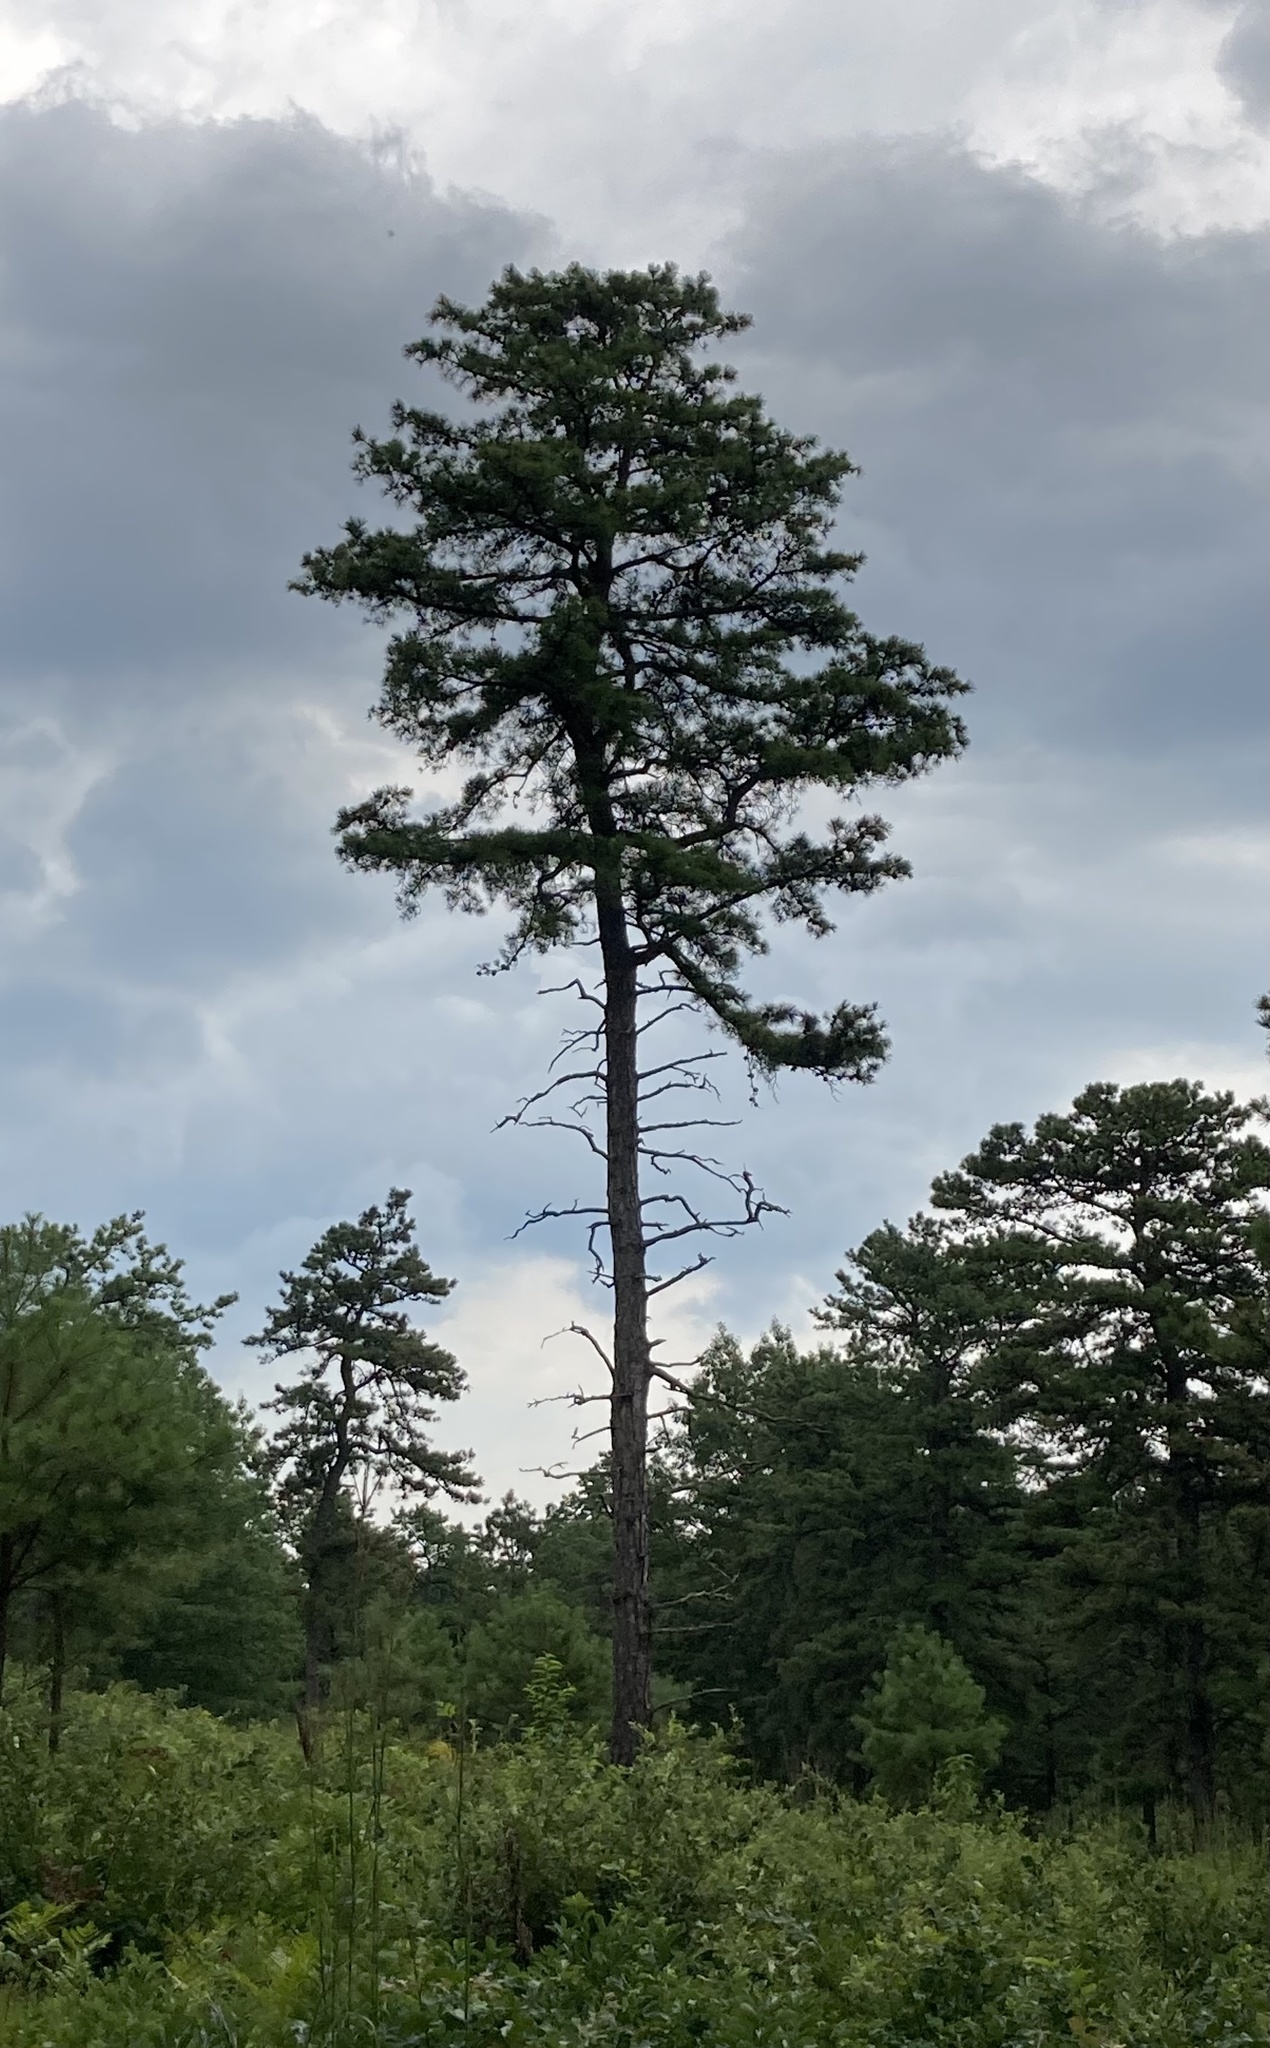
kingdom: Plantae
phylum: Tracheophyta
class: Pinopsida
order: Pinales
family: Pinaceae
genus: Pinus
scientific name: Pinus rigida
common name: Pitch pine
